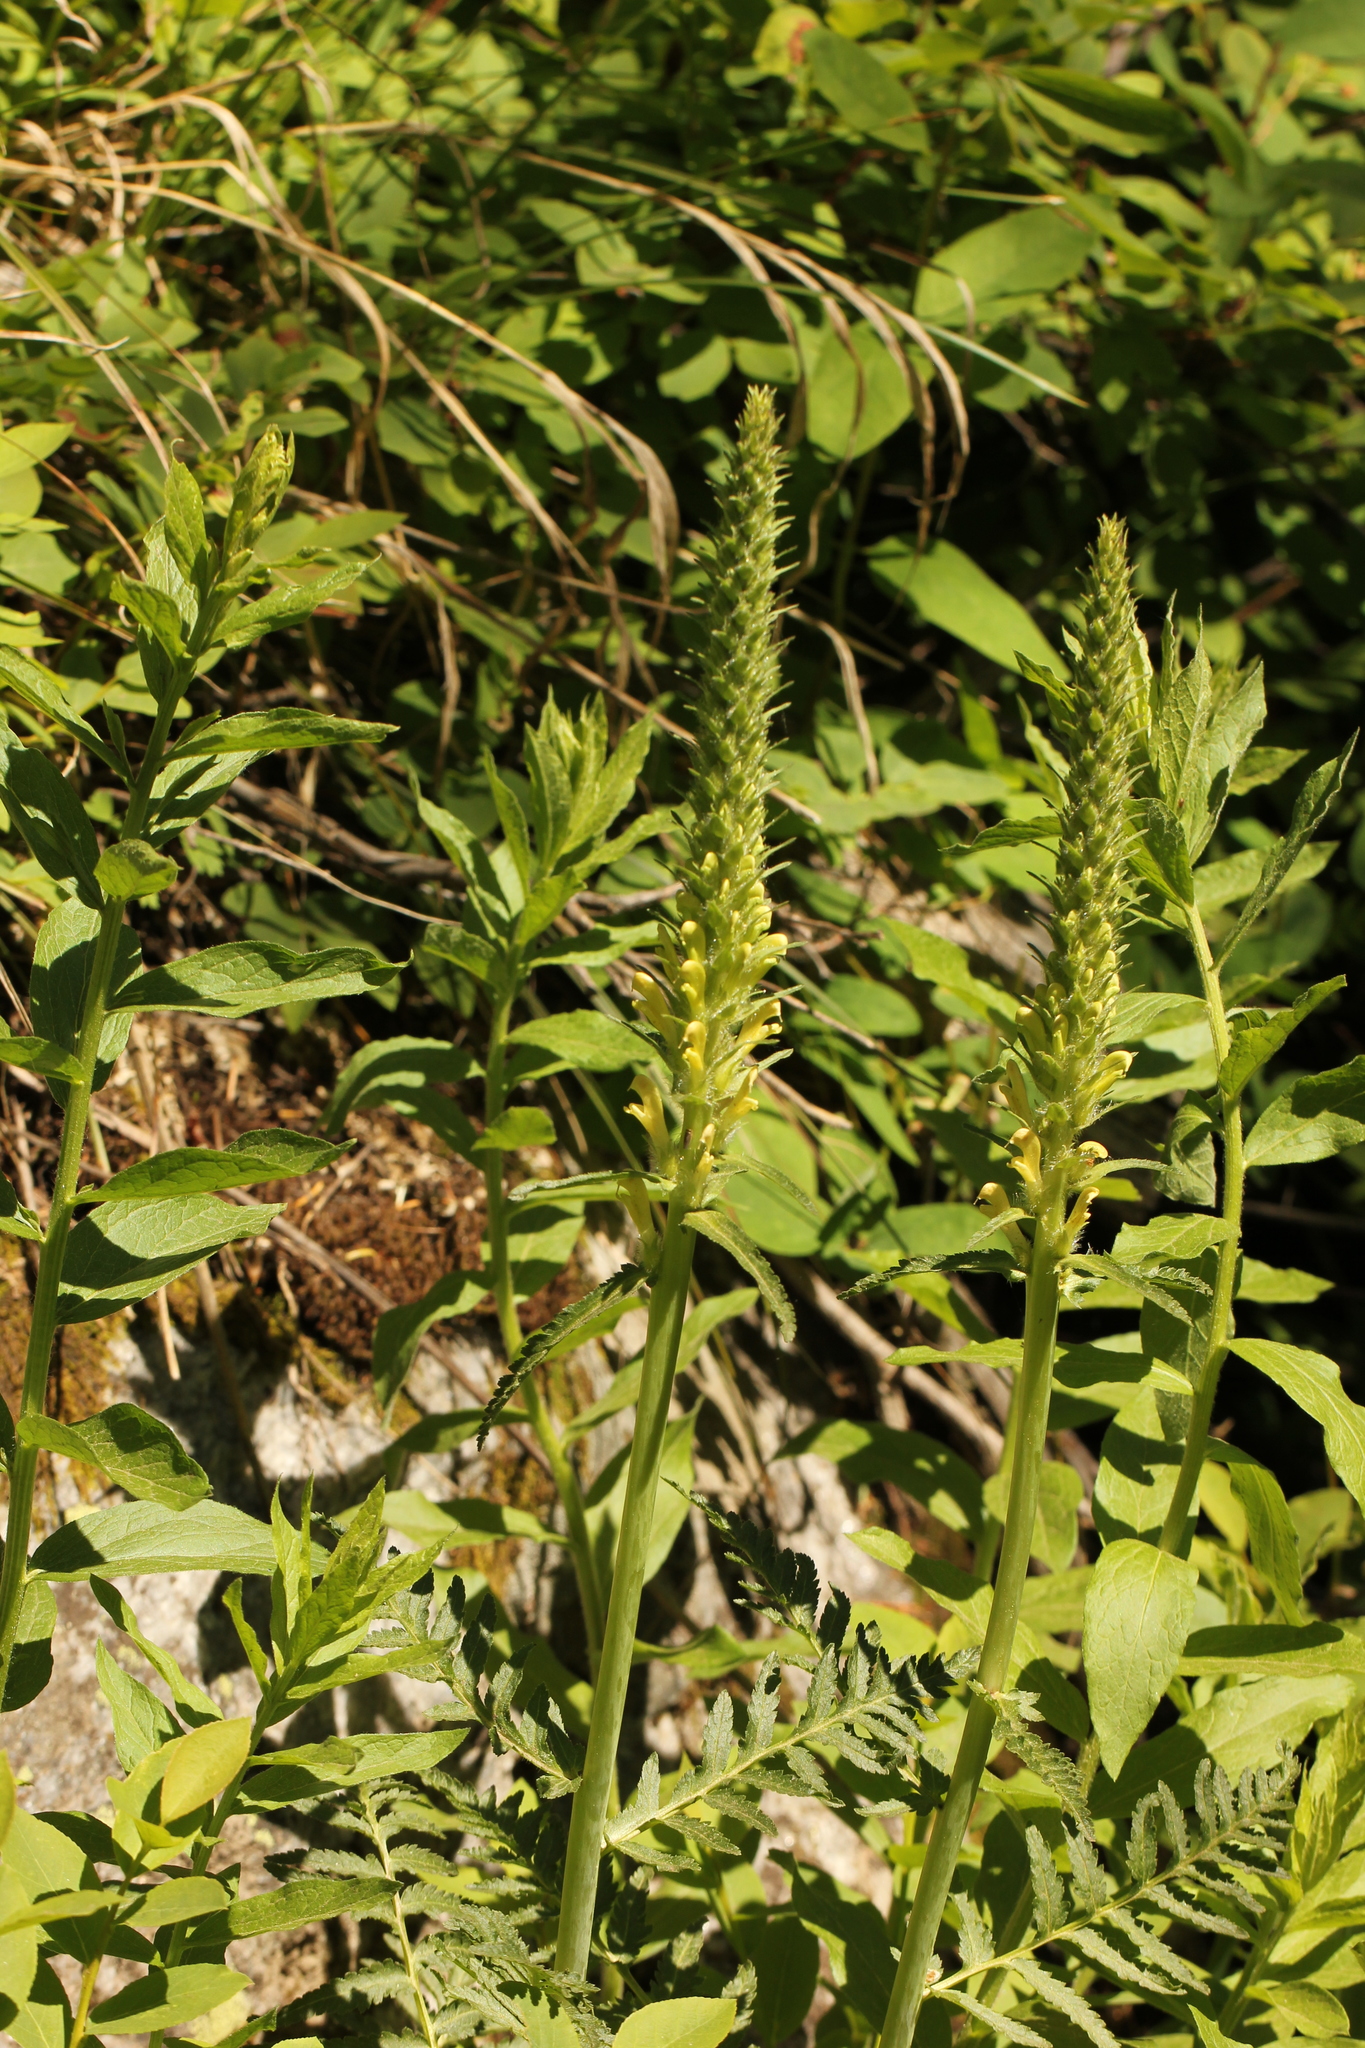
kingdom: Plantae
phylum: Tracheophyta
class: Magnoliopsida
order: Lamiales
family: Orobanchaceae
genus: Pedicularis
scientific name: Pedicularis bracteosa
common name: Bracted lousewort
